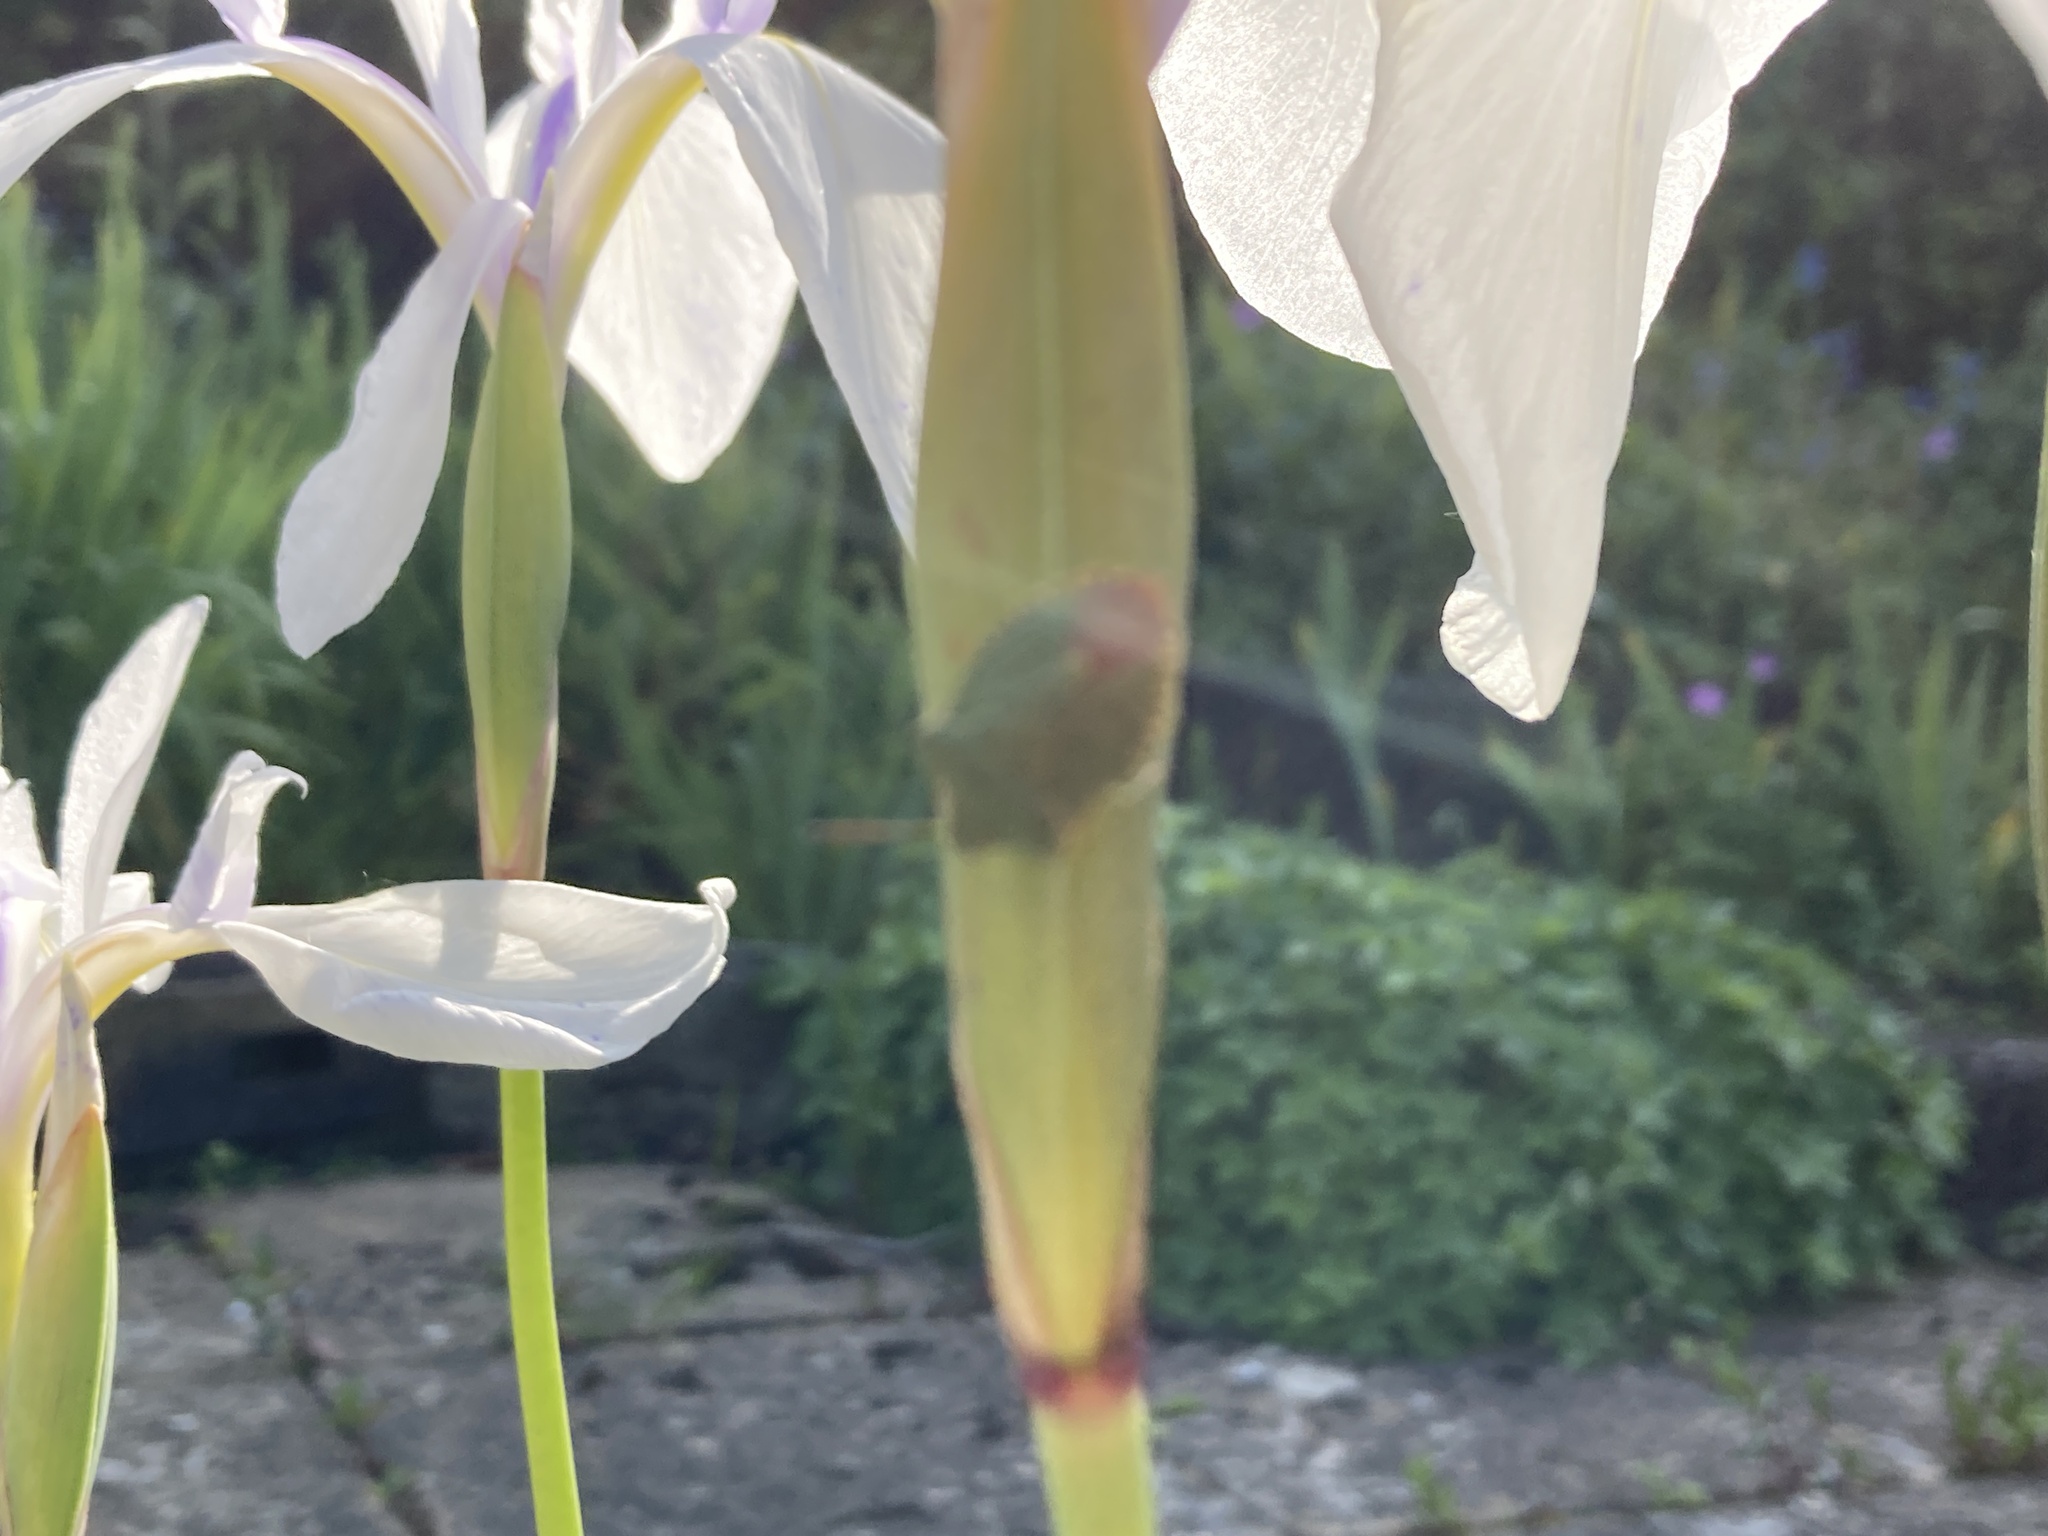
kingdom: Animalia
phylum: Arthropoda
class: Insecta
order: Hemiptera
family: Pentatomidae
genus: Palomena
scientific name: Palomena prasina
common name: Green shieldbug
